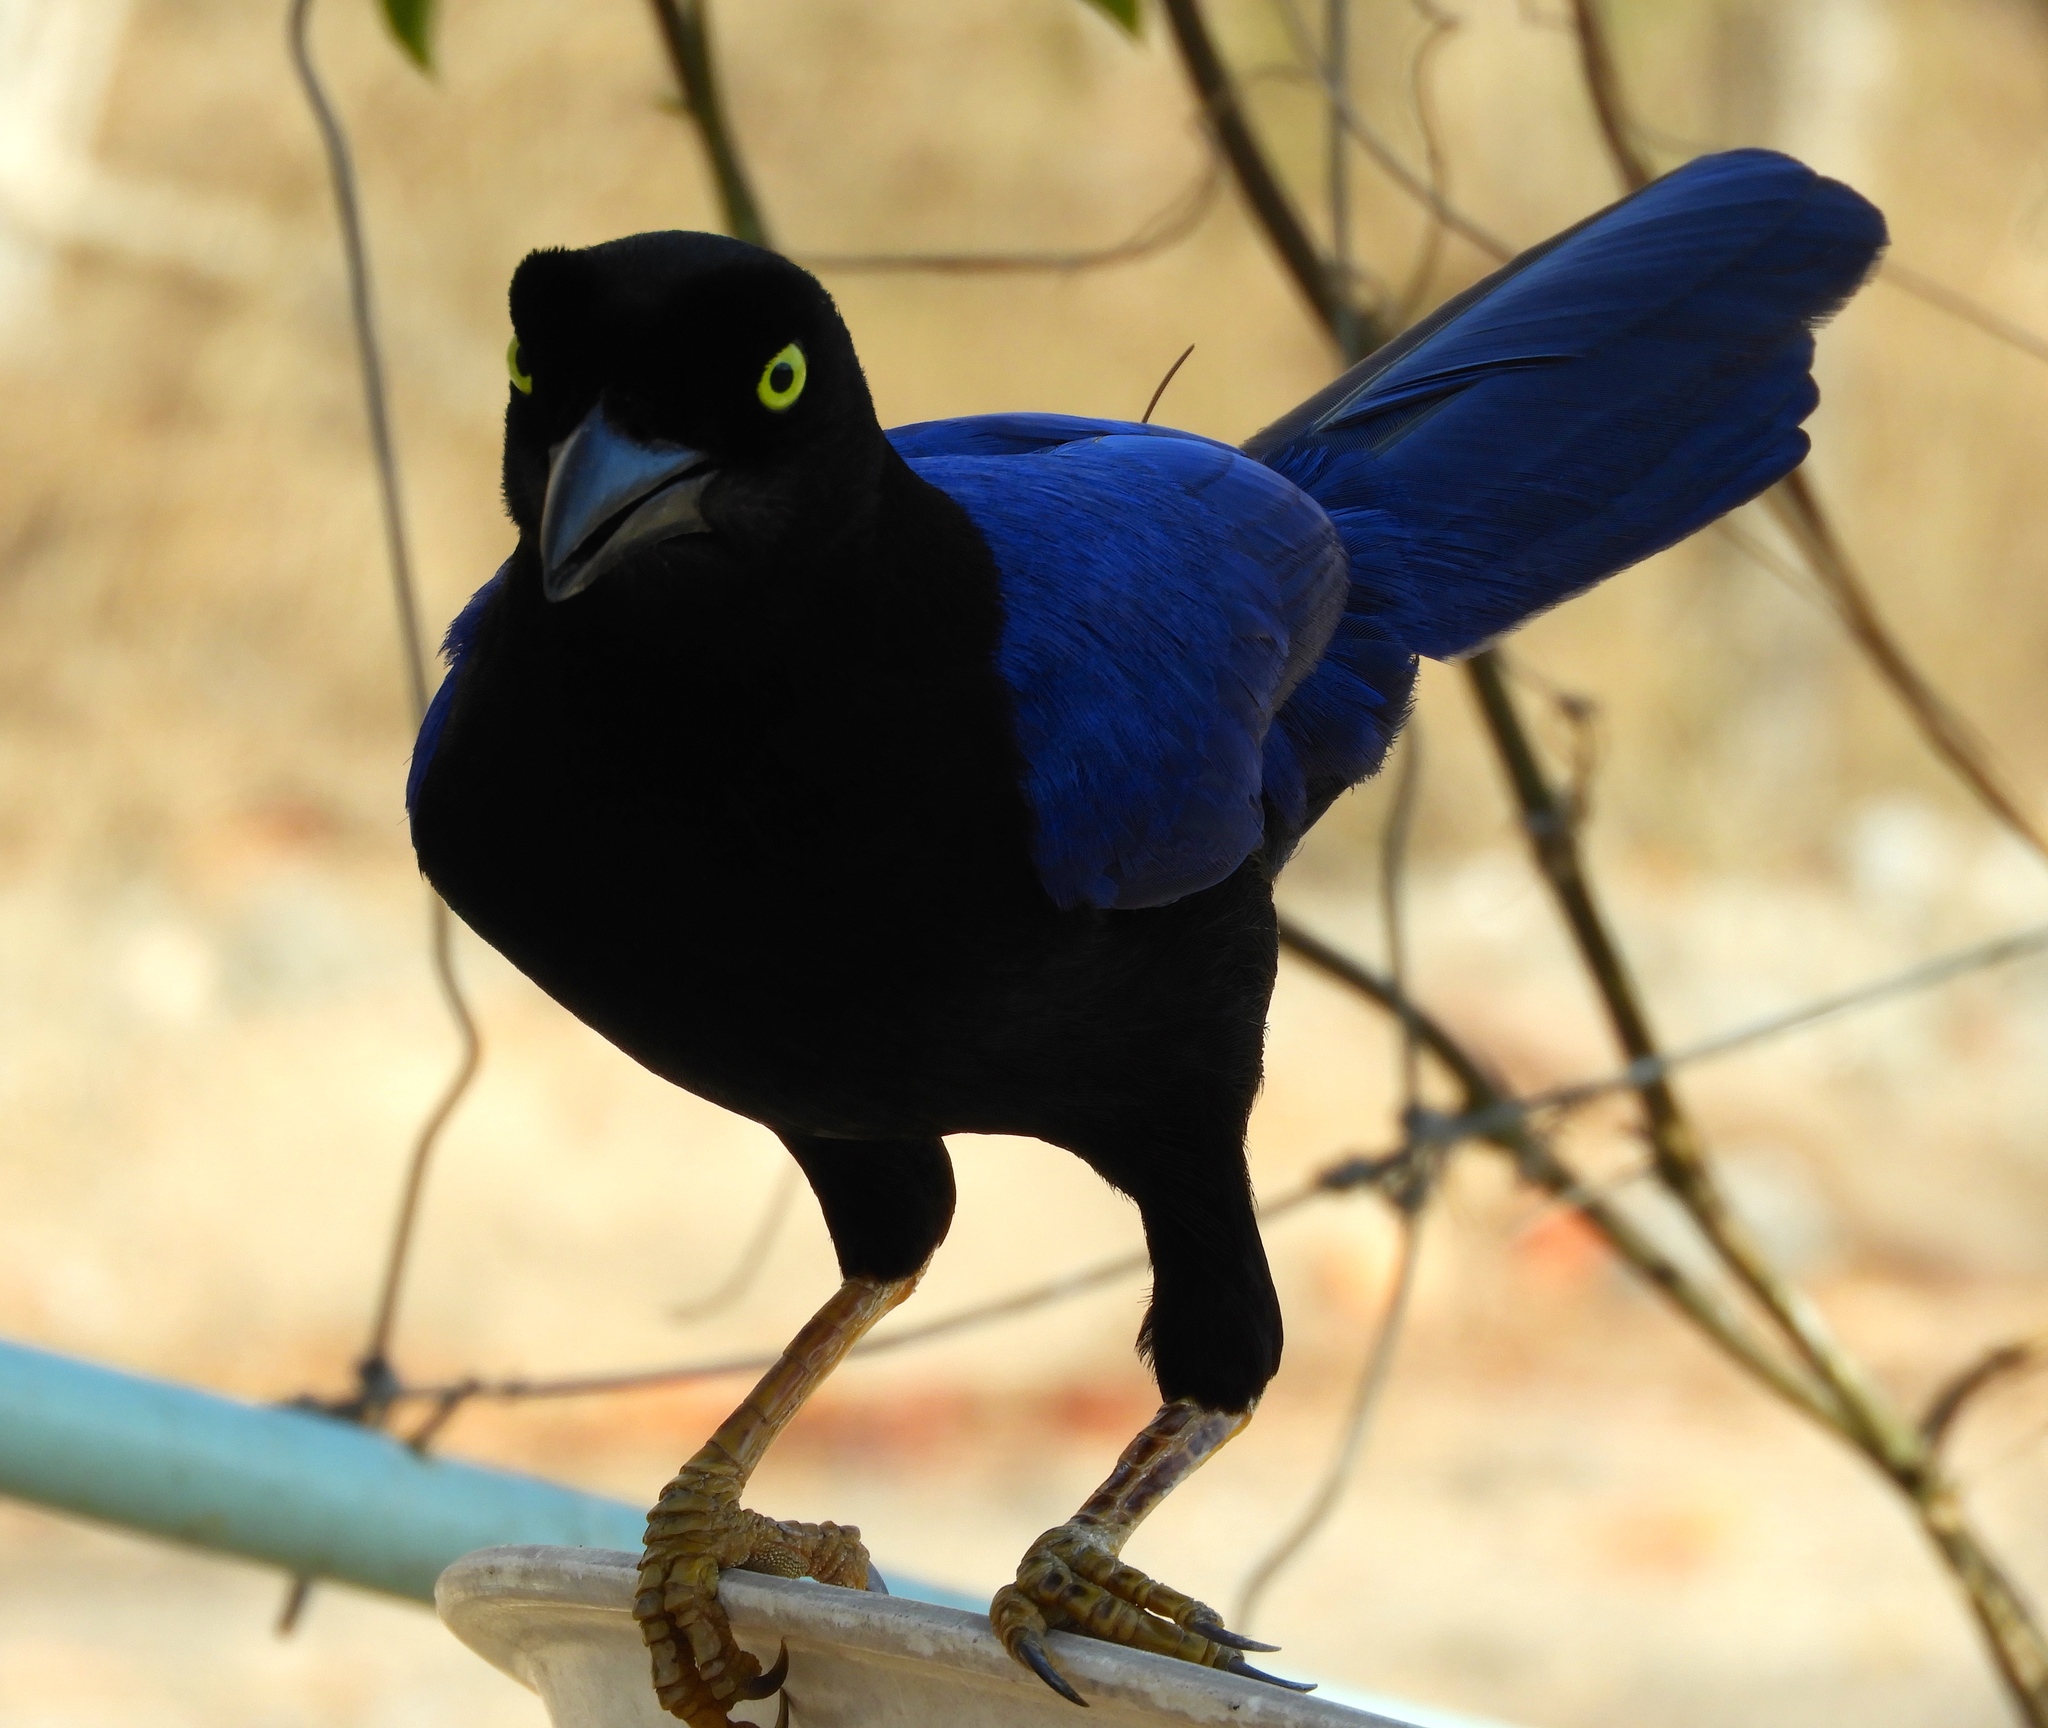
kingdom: Animalia
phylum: Chordata
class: Aves
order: Passeriformes
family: Corvidae
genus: Cyanocorax
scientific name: Cyanocorax beecheii
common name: Purplish-backed jay
